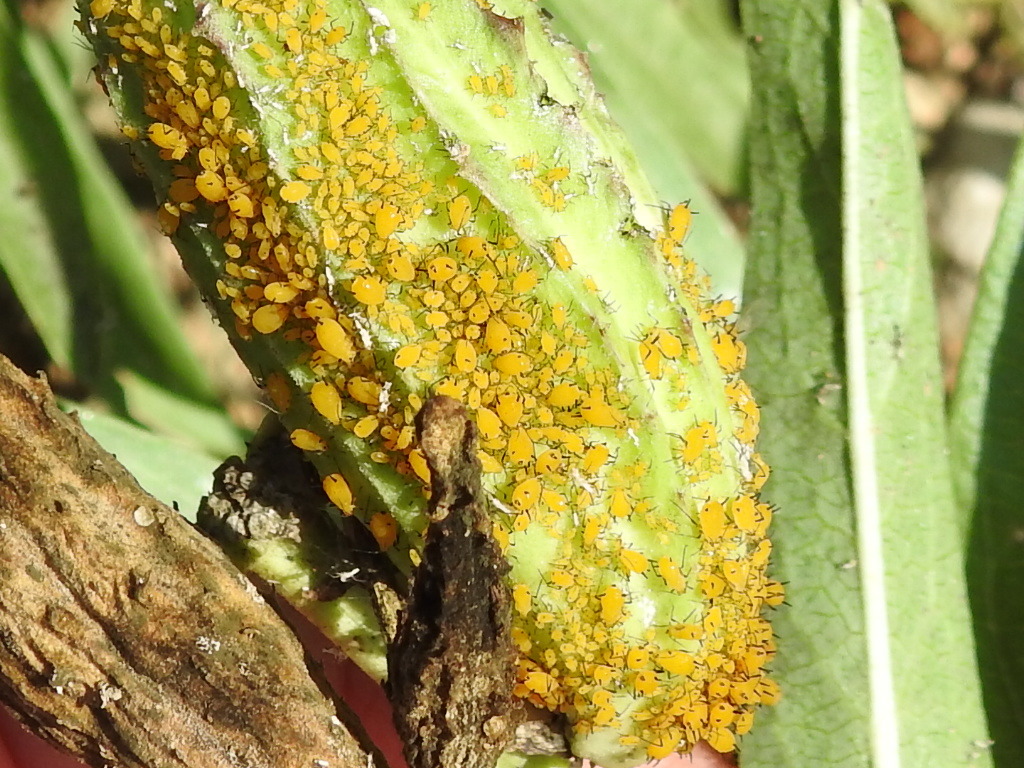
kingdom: Animalia
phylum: Arthropoda
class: Insecta
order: Hemiptera
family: Aphididae
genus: Aphis
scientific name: Aphis nerii
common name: Oleander aphid
